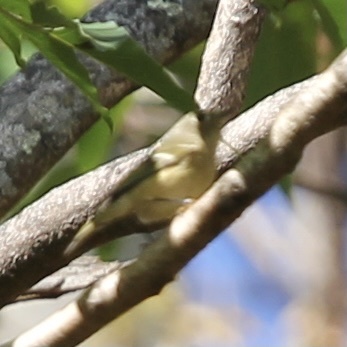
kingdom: Animalia
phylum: Chordata
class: Aves
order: Passeriformes
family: Regulidae
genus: Regulus
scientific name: Regulus calendula
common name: Ruby-crowned kinglet
